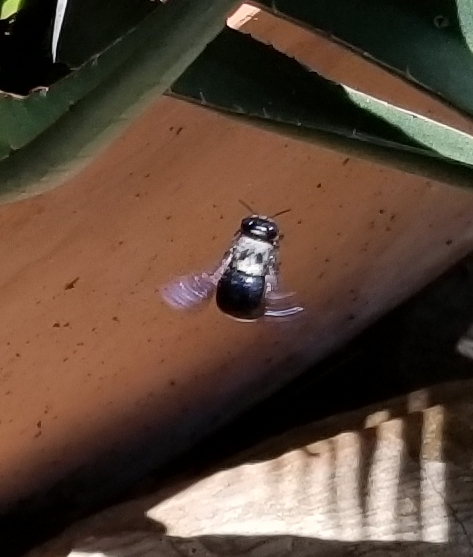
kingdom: Animalia
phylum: Arthropoda
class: Insecta
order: Hymenoptera
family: Apidae
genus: Xylocopa
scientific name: Xylocopa virginica
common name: Carpenter bee
